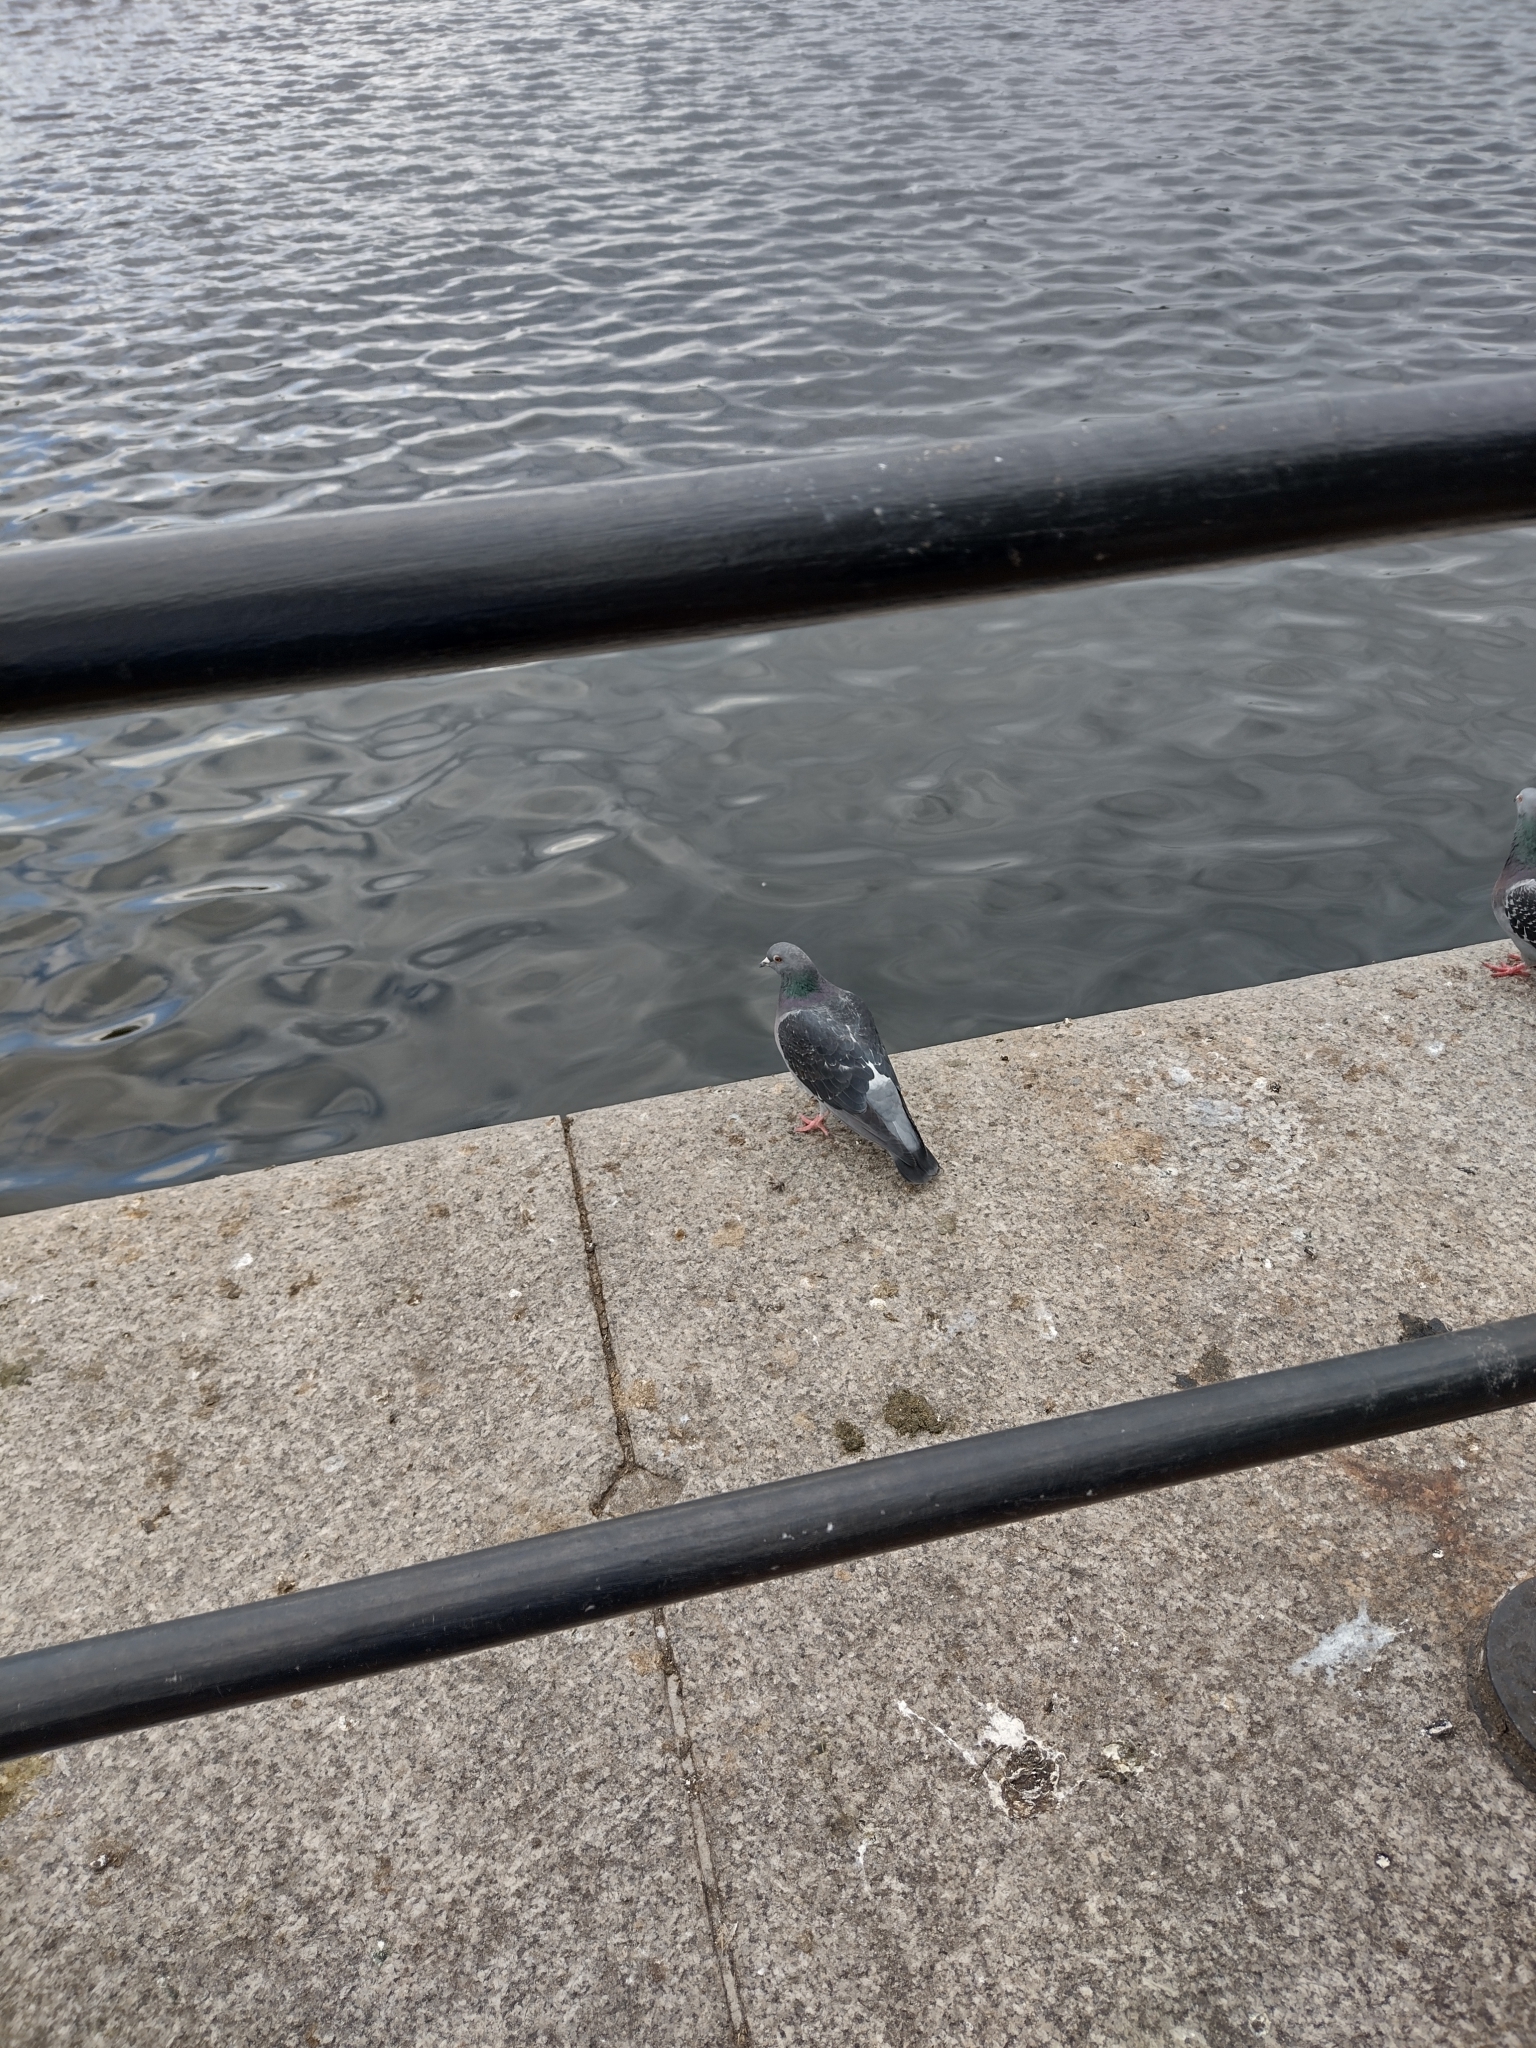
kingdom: Animalia
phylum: Chordata
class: Aves
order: Columbiformes
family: Columbidae
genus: Columba
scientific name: Columba livia
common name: Rock pigeon
